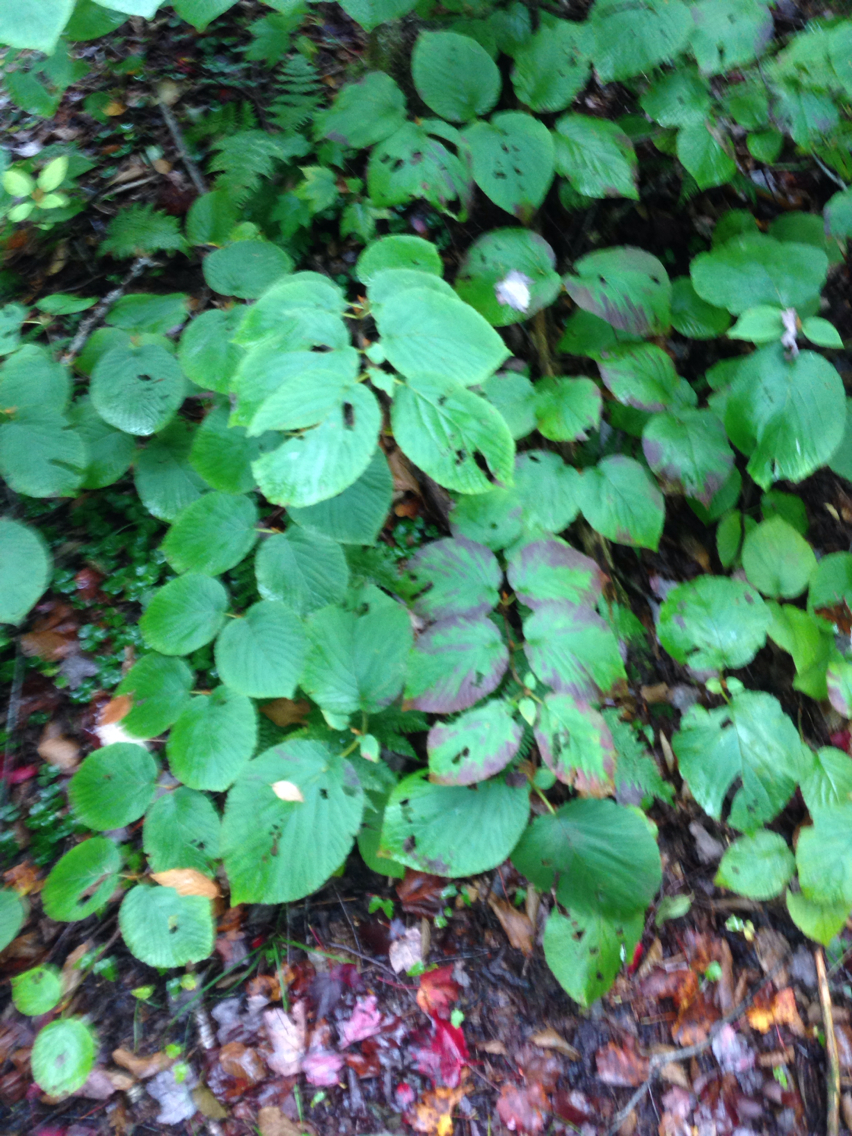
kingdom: Plantae
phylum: Tracheophyta
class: Magnoliopsida
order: Dipsacales
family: Viburnaceae
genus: Viburnum
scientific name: Viburnum lantanoides
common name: Hobblebush
